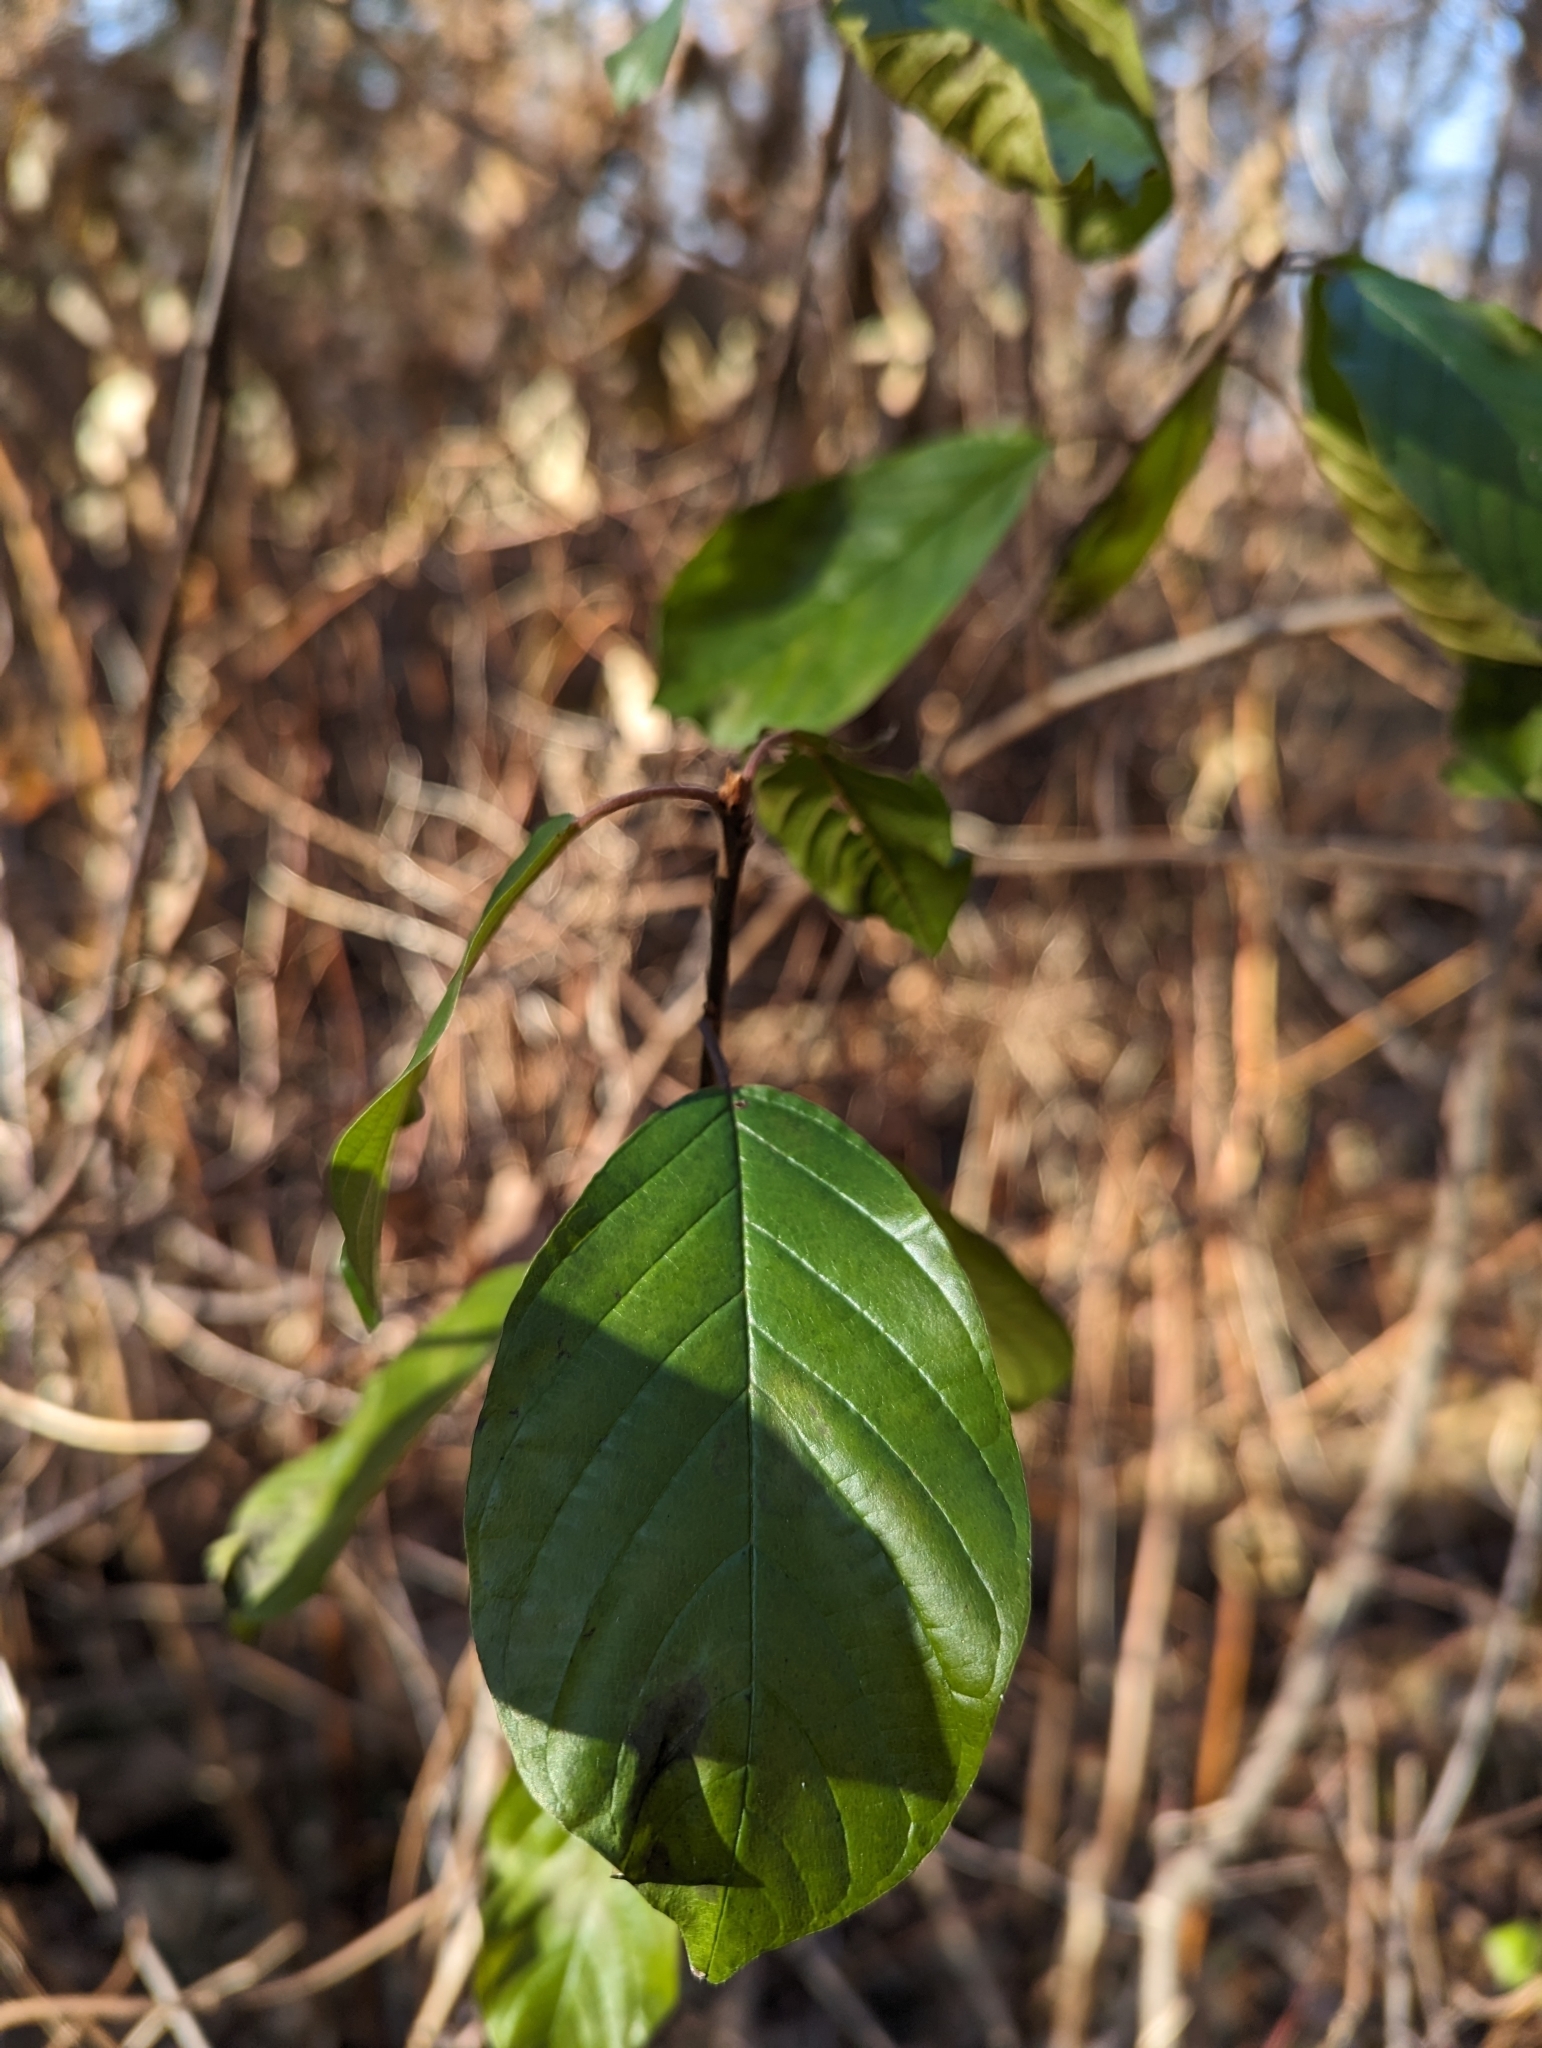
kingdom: Plantae
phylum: Tracheophyta
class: Magnoliopsida
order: Rosales
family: Rhamnaceae
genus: Frangula
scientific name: Frangula alnus
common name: Alder buckthorn
